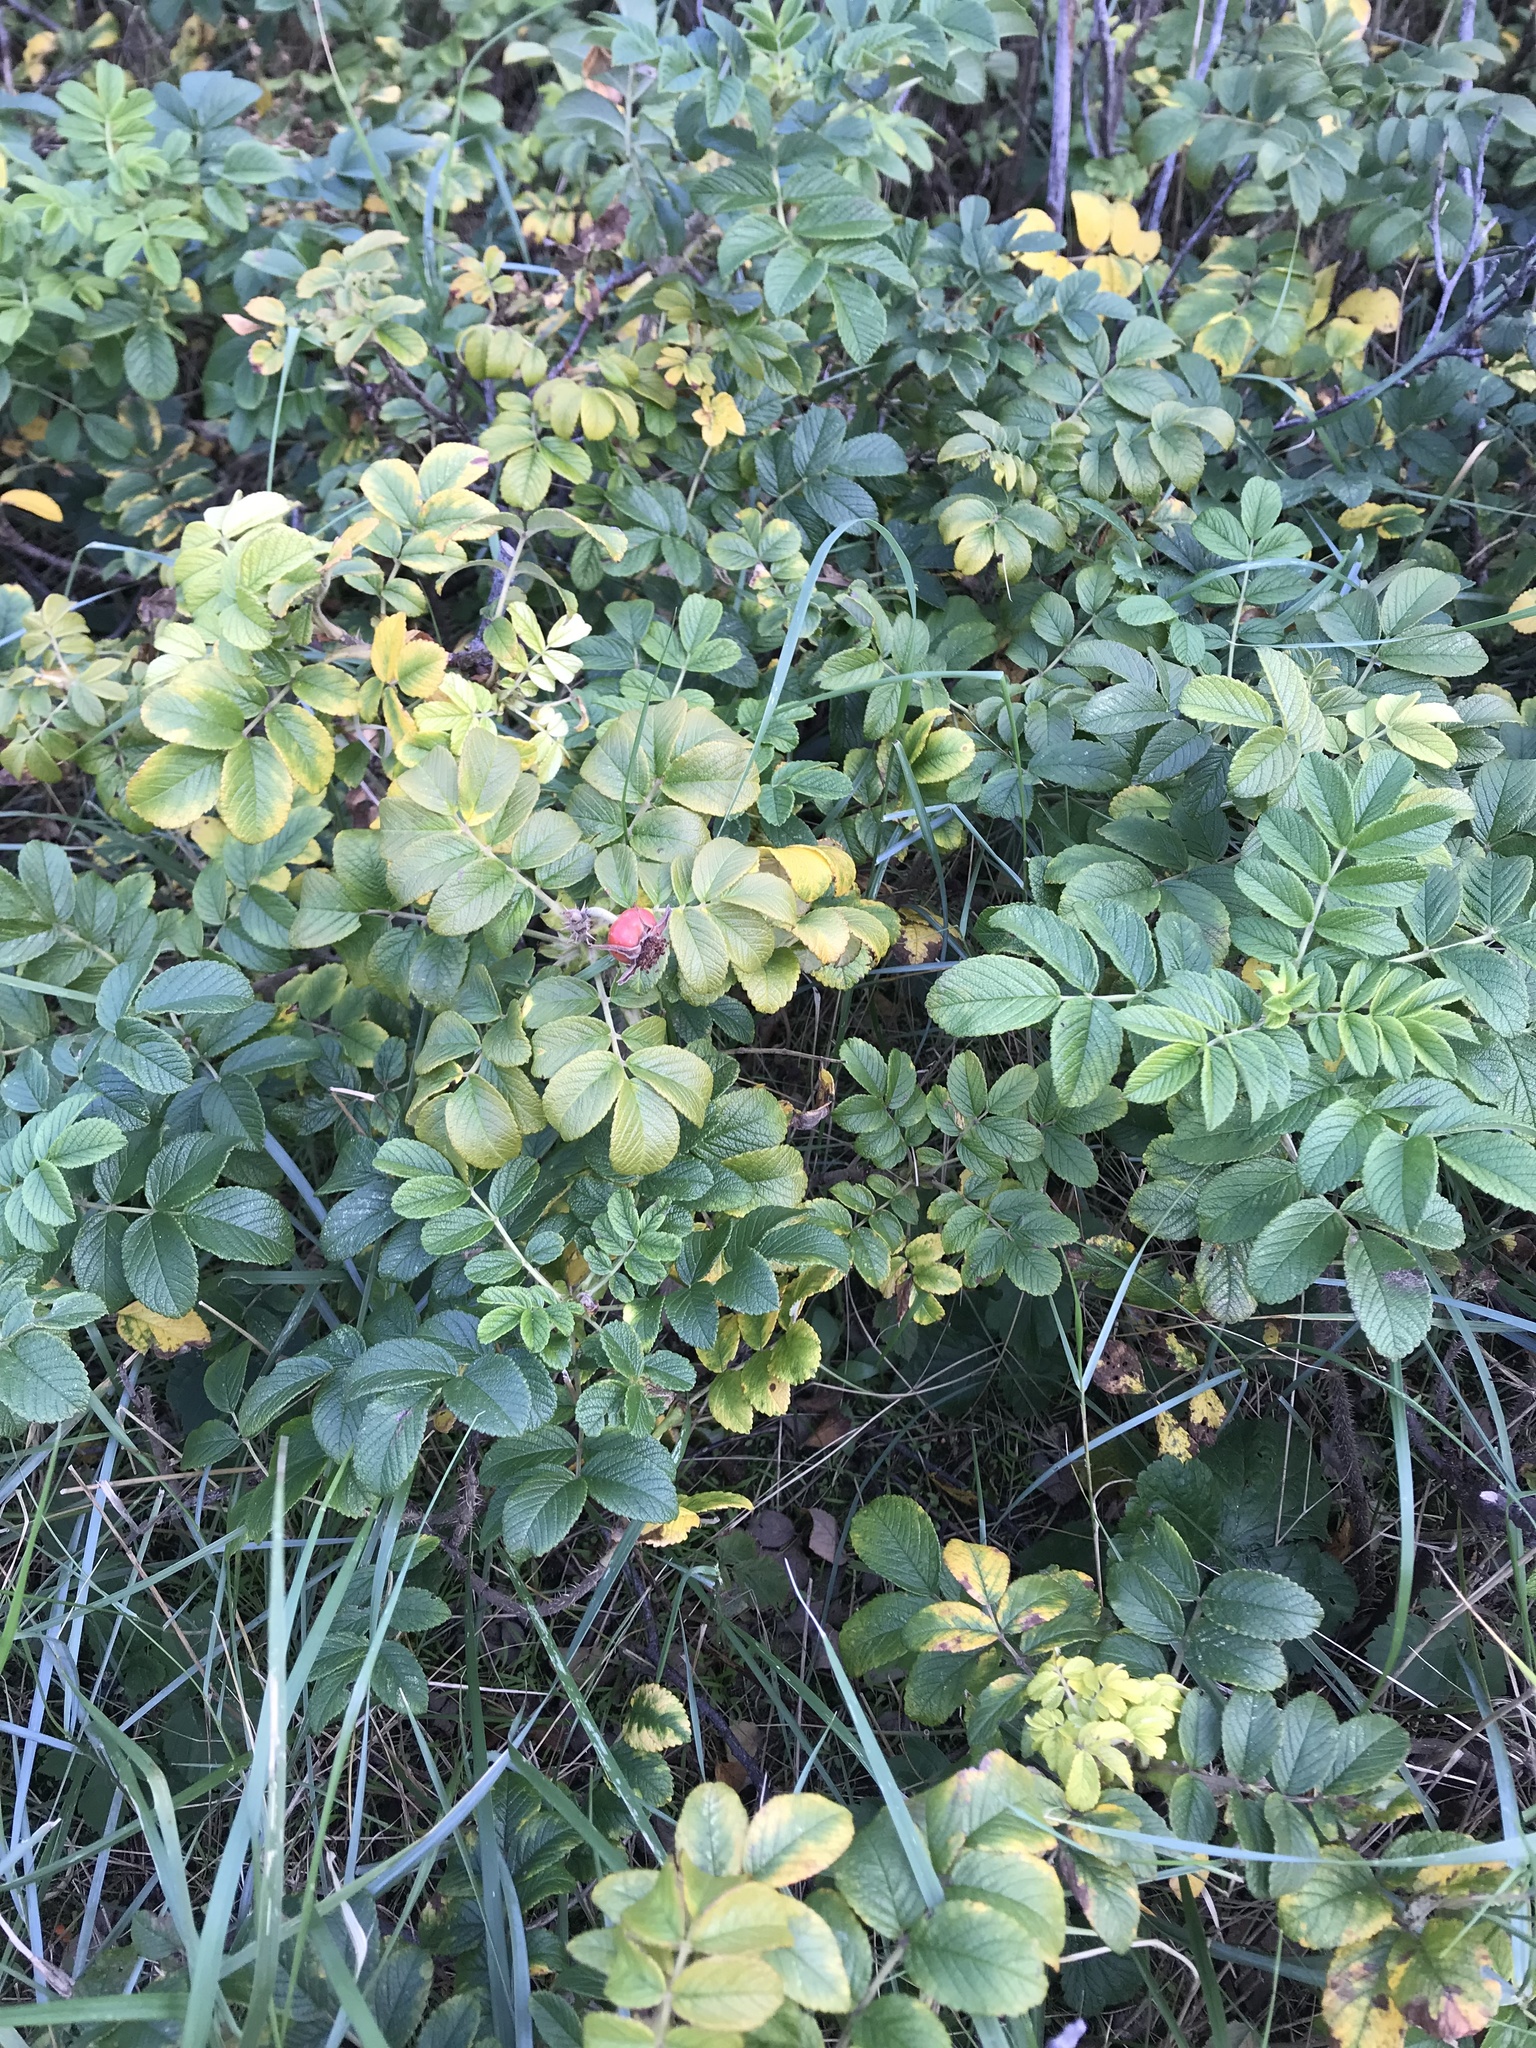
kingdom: Plantae
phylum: Tracheophyta
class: Magnoliopsida
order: Rosales
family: Rosaceae
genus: Rosa
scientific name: Rosa rugosa
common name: Japanese rose
